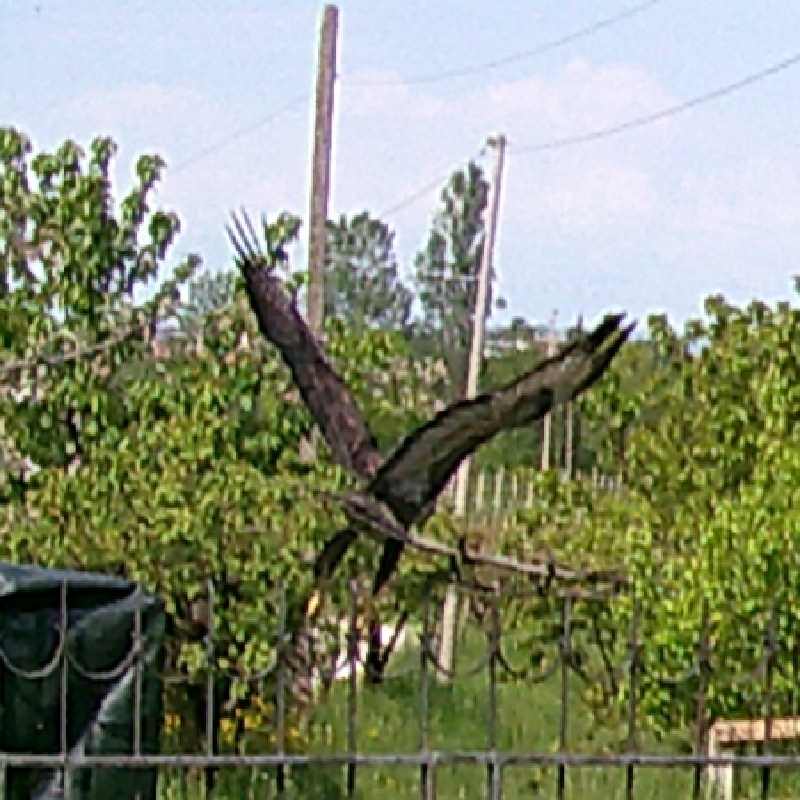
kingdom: Animalia
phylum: Chordata
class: Aves
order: Accipitriformes
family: Accipitridae
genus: Buteo
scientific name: Buteo buteo
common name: Common buzzard
